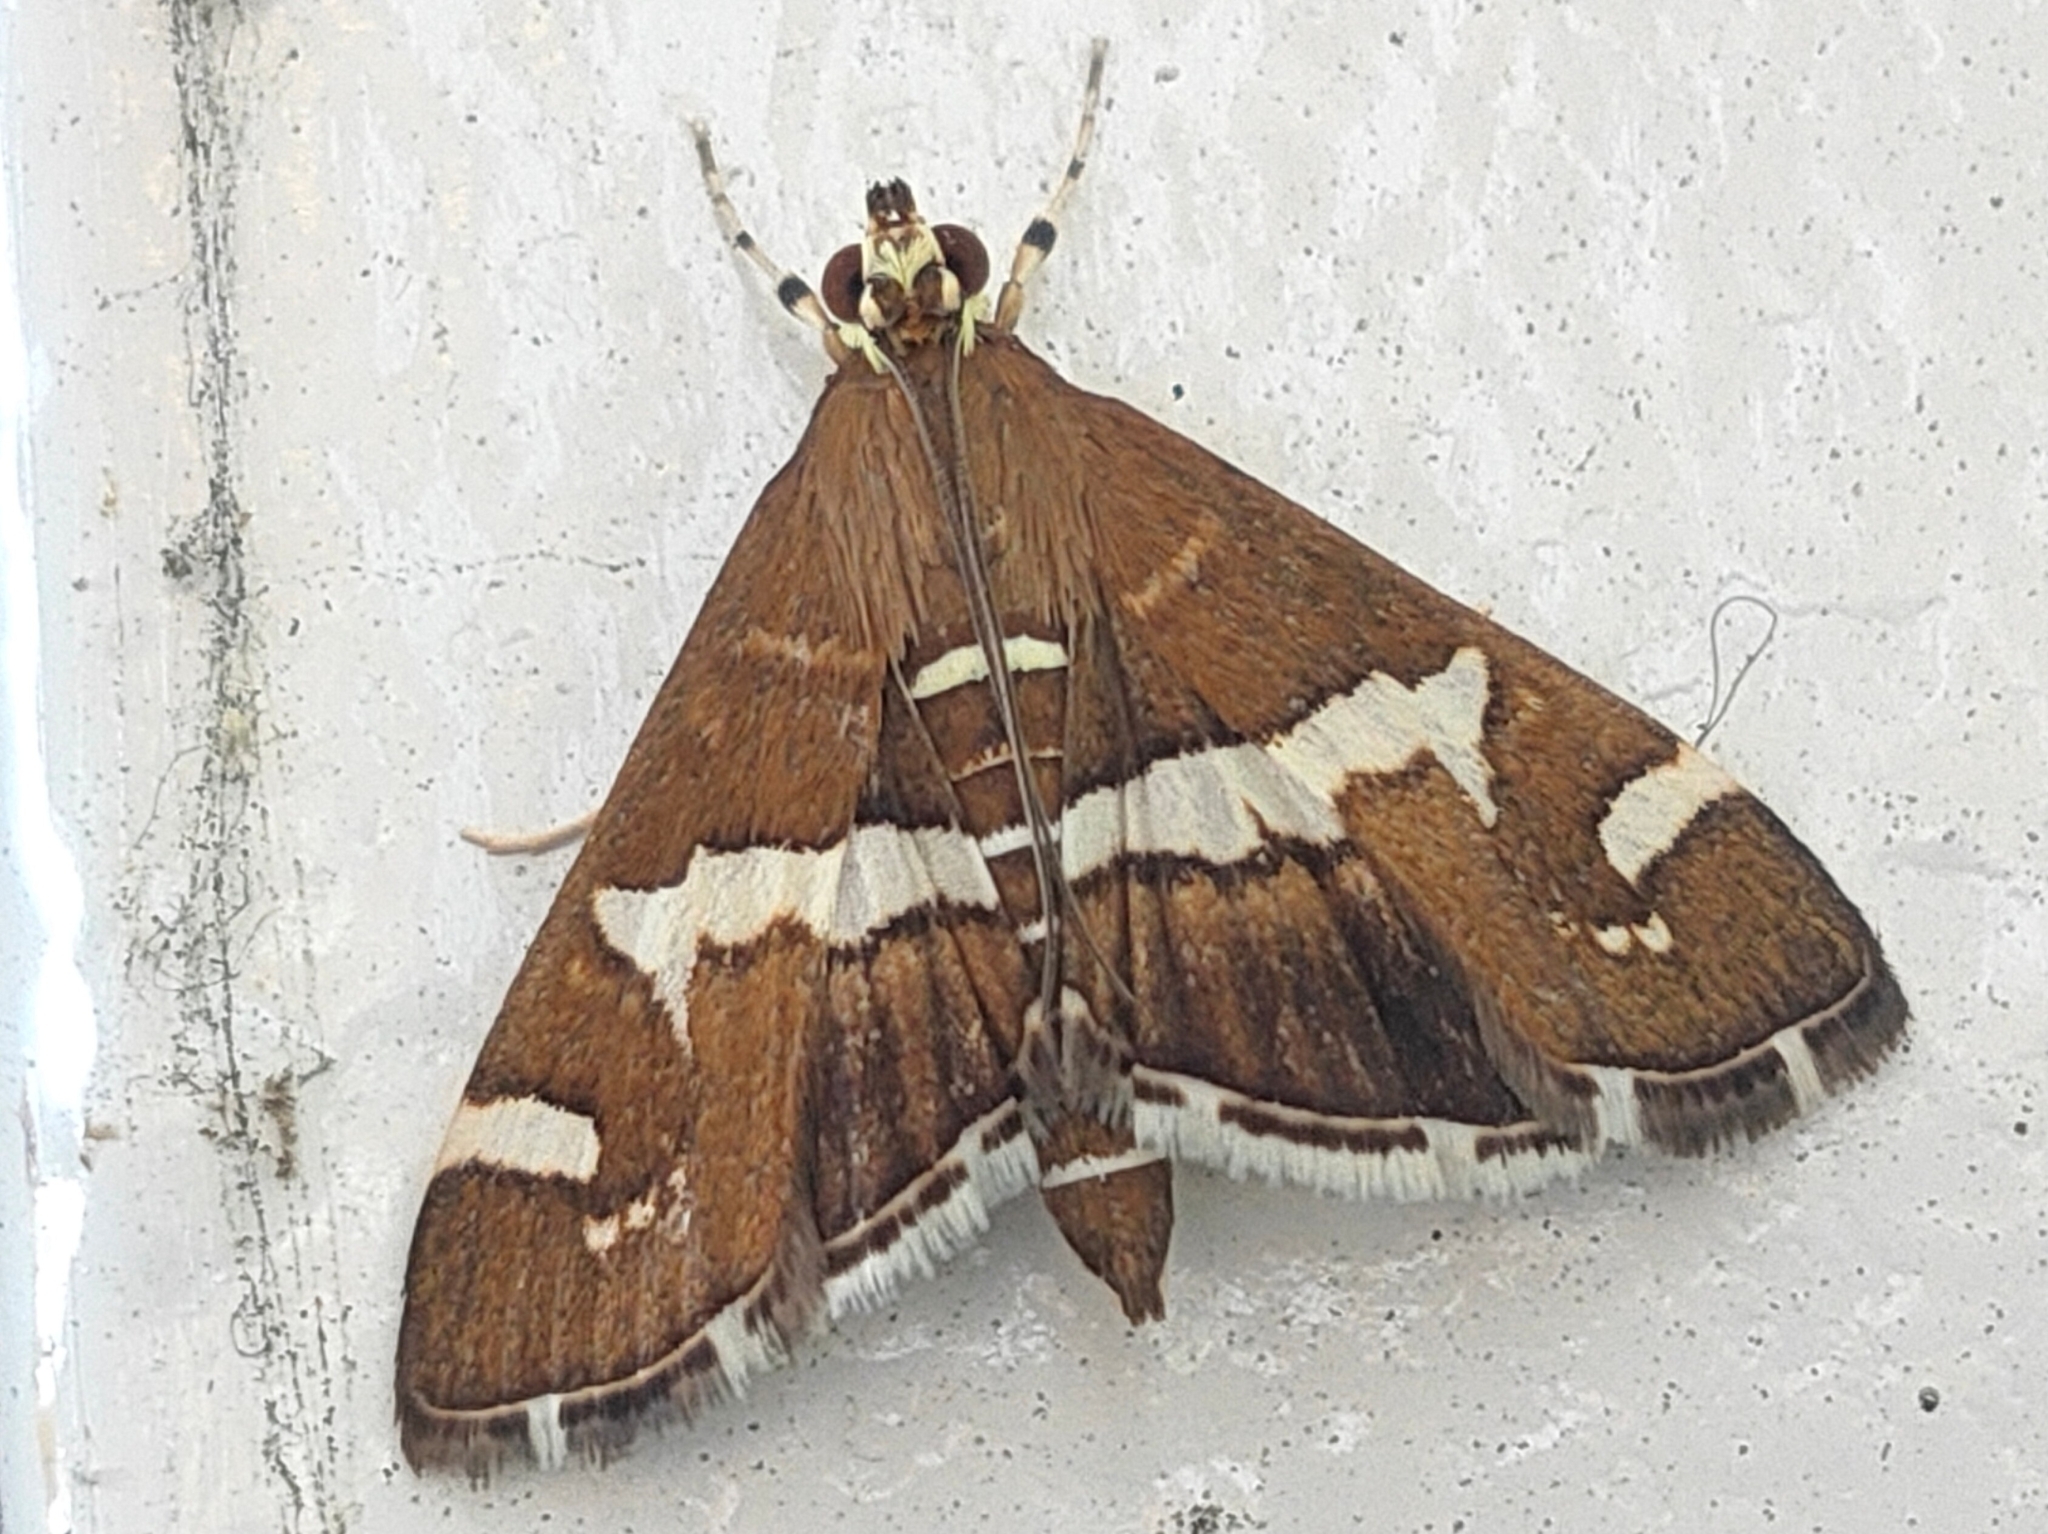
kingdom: Animalia
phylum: Arthropoda
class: Insecta
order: Lepidoptera
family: Crambidae
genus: Spoladea
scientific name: Spoladea recurvalis
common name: Beet webworm moth
